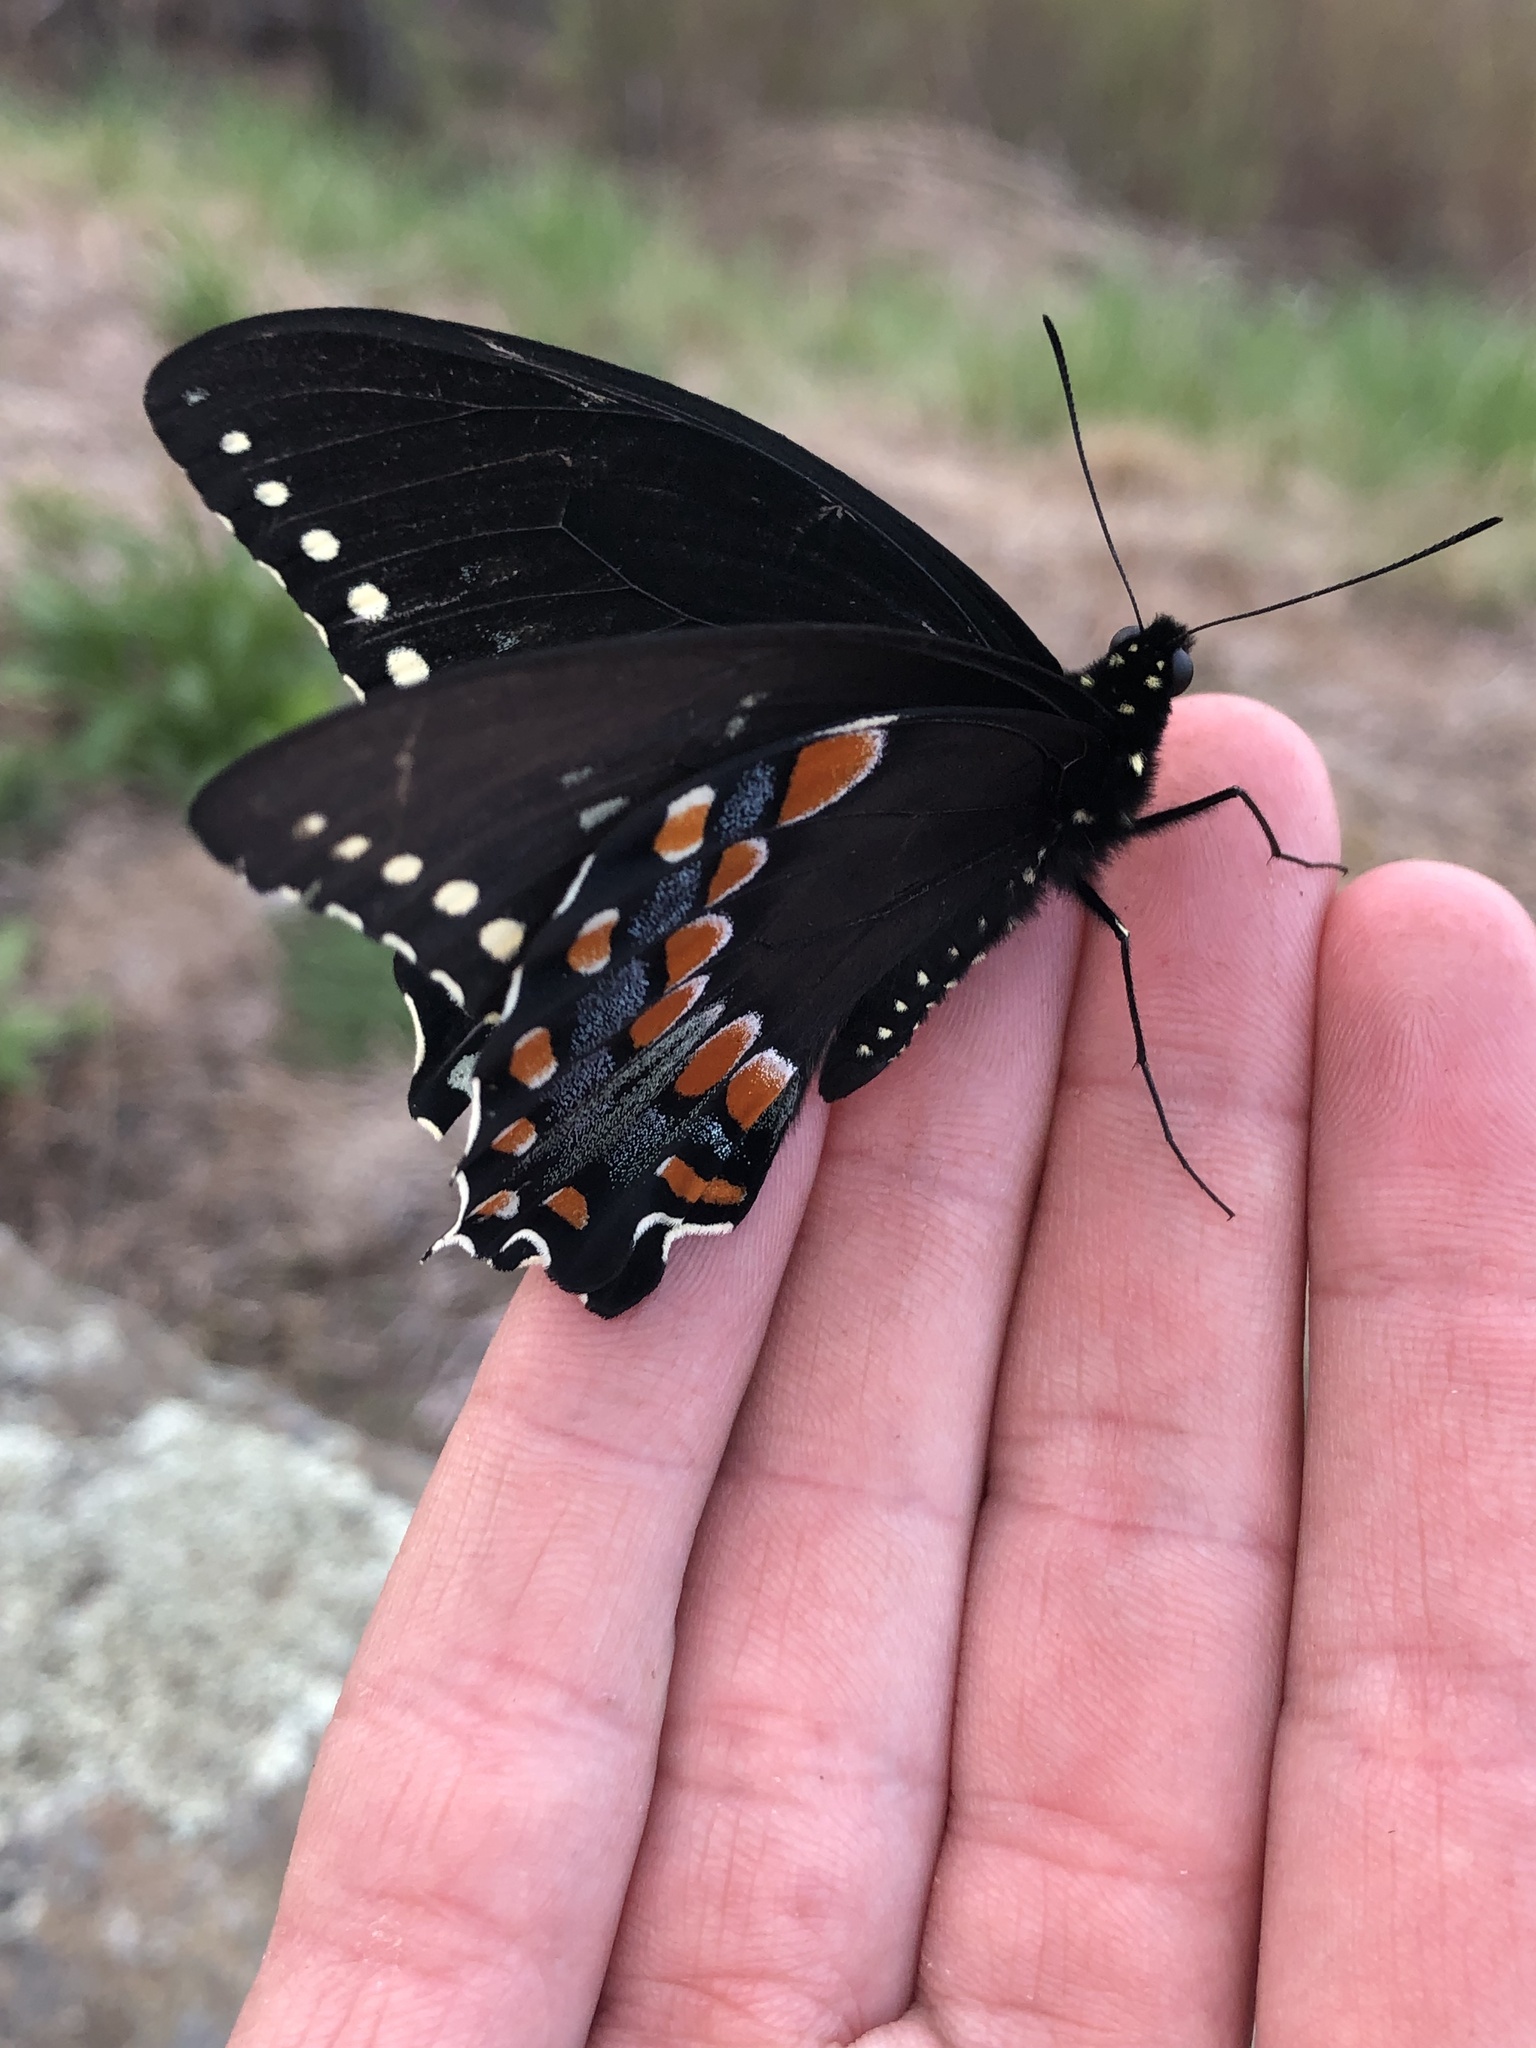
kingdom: Animalia
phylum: Arthropoda
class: Insecta
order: Lepidoptera
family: Papilionidae
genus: Papilio
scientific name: Papilio troilus
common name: Spicebush swallowtail
